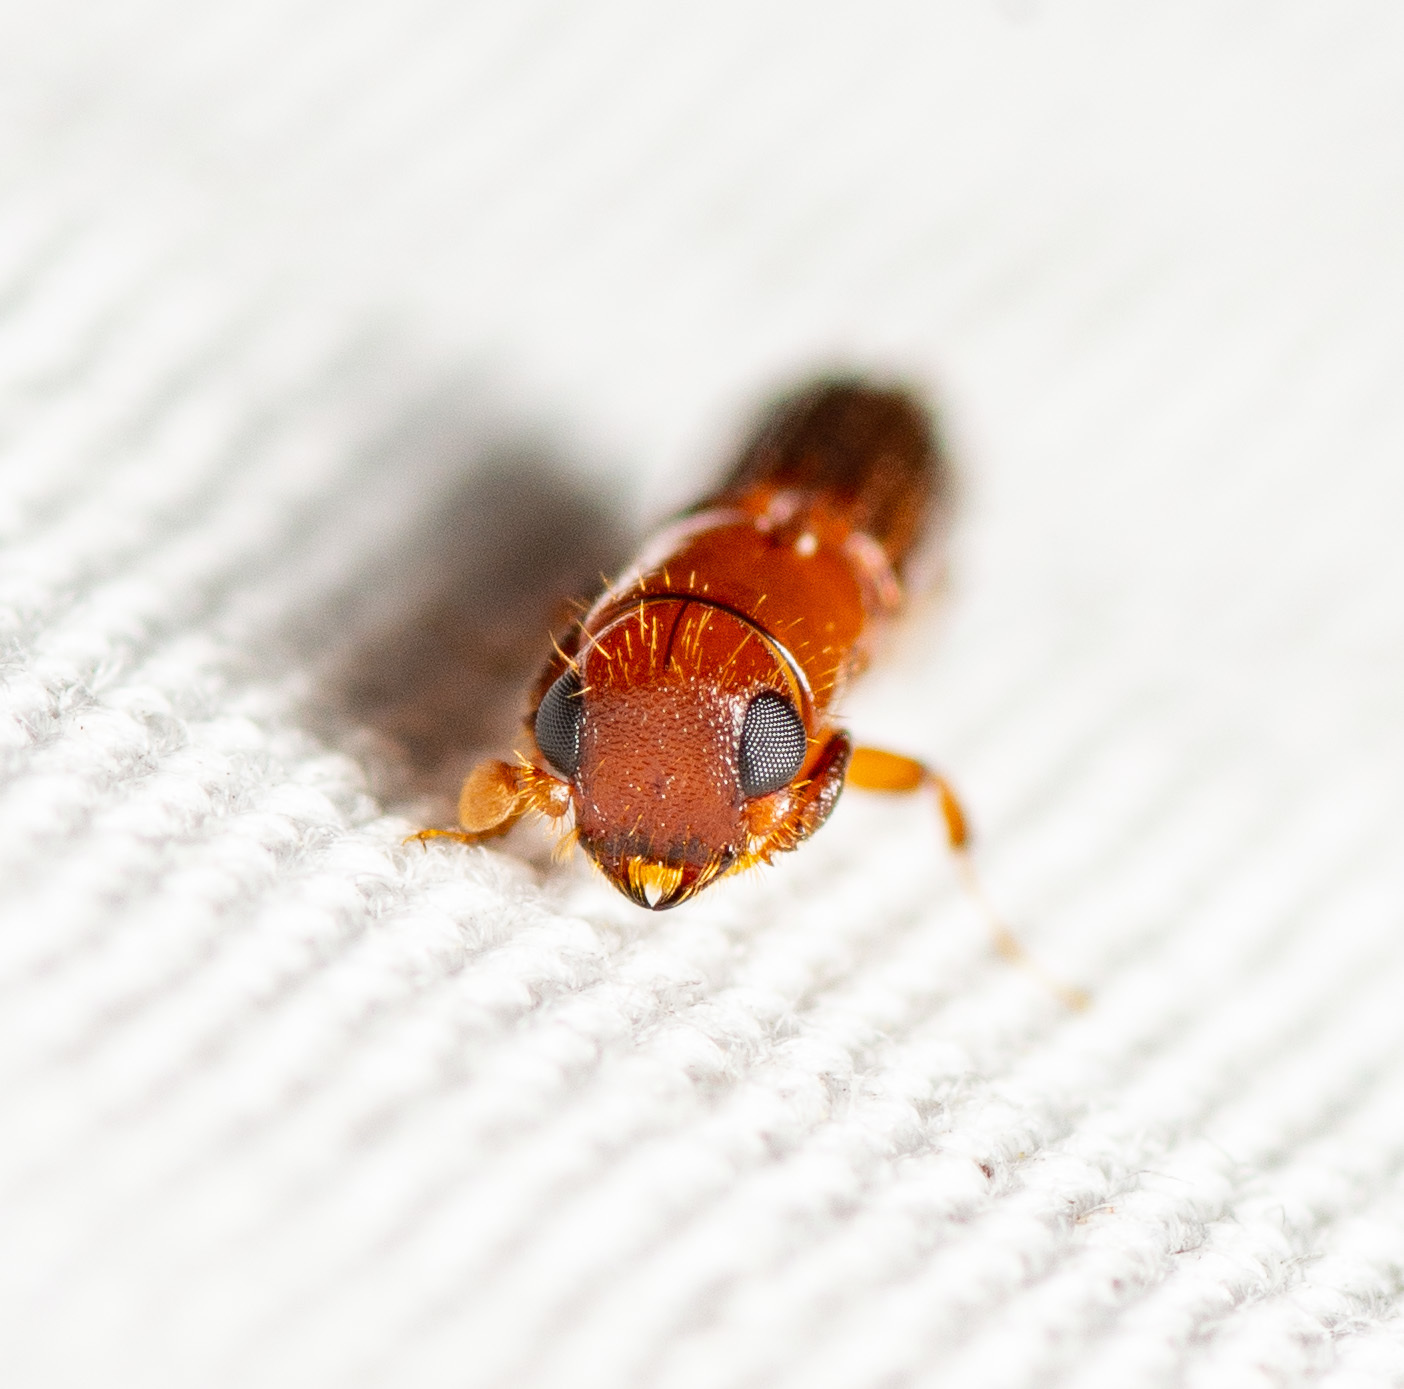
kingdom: Animalia
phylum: Arthropoda
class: Insecta
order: Coleoptera
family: Curculionidae
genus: Euplatypus
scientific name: Euplatypus compositus
